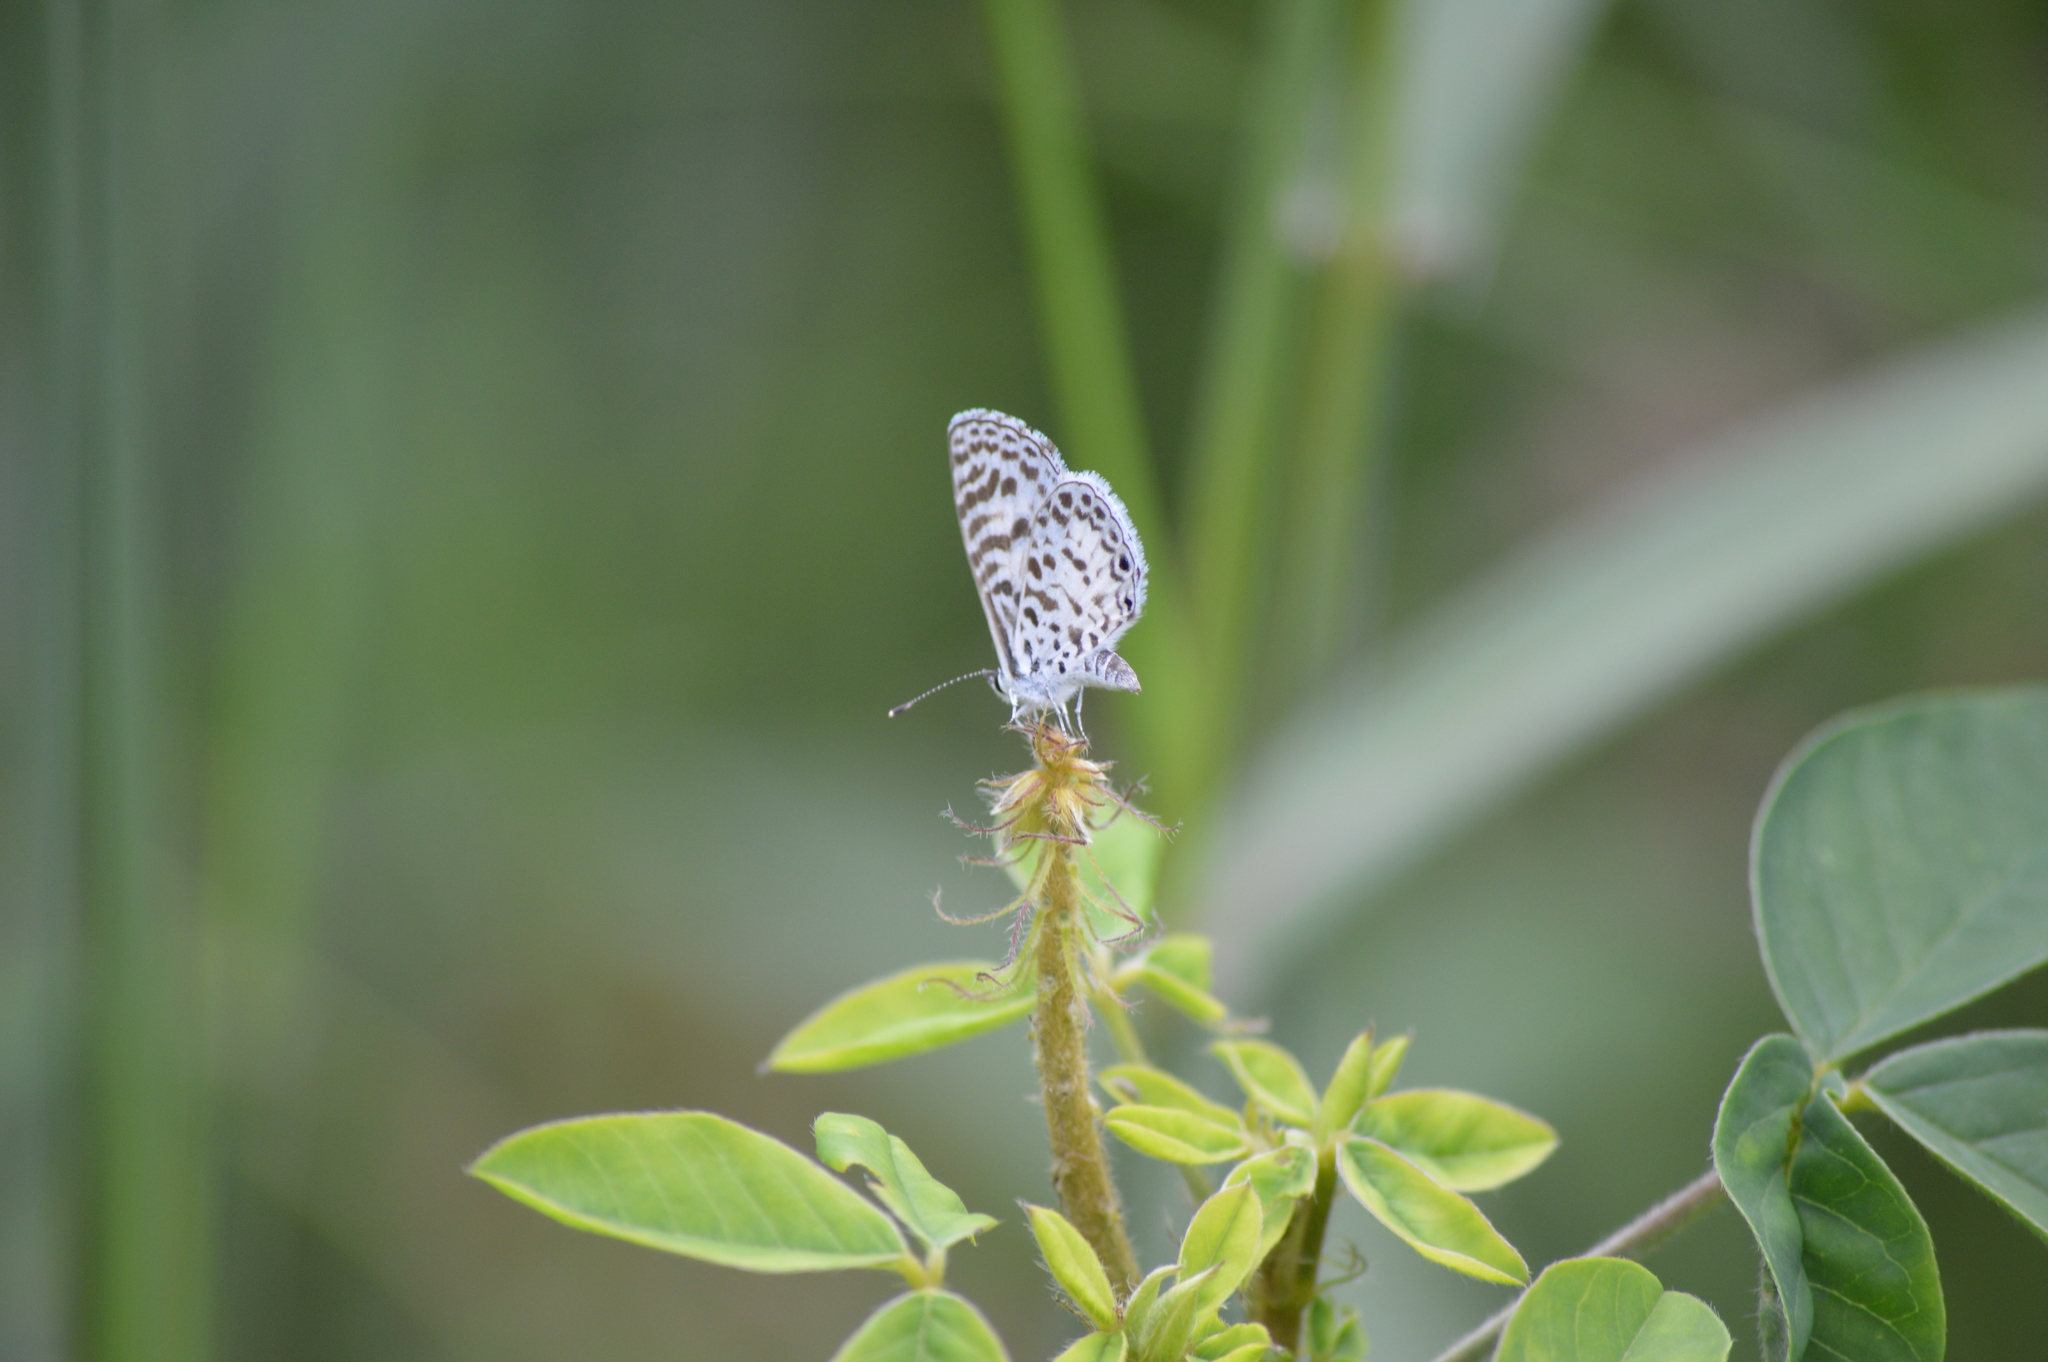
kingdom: Animalia
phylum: Arthropoda
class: Insecta
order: Lepidoptera
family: Lycaenidae
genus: Leptotes
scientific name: Leptotes cassius
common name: Cassius blue
